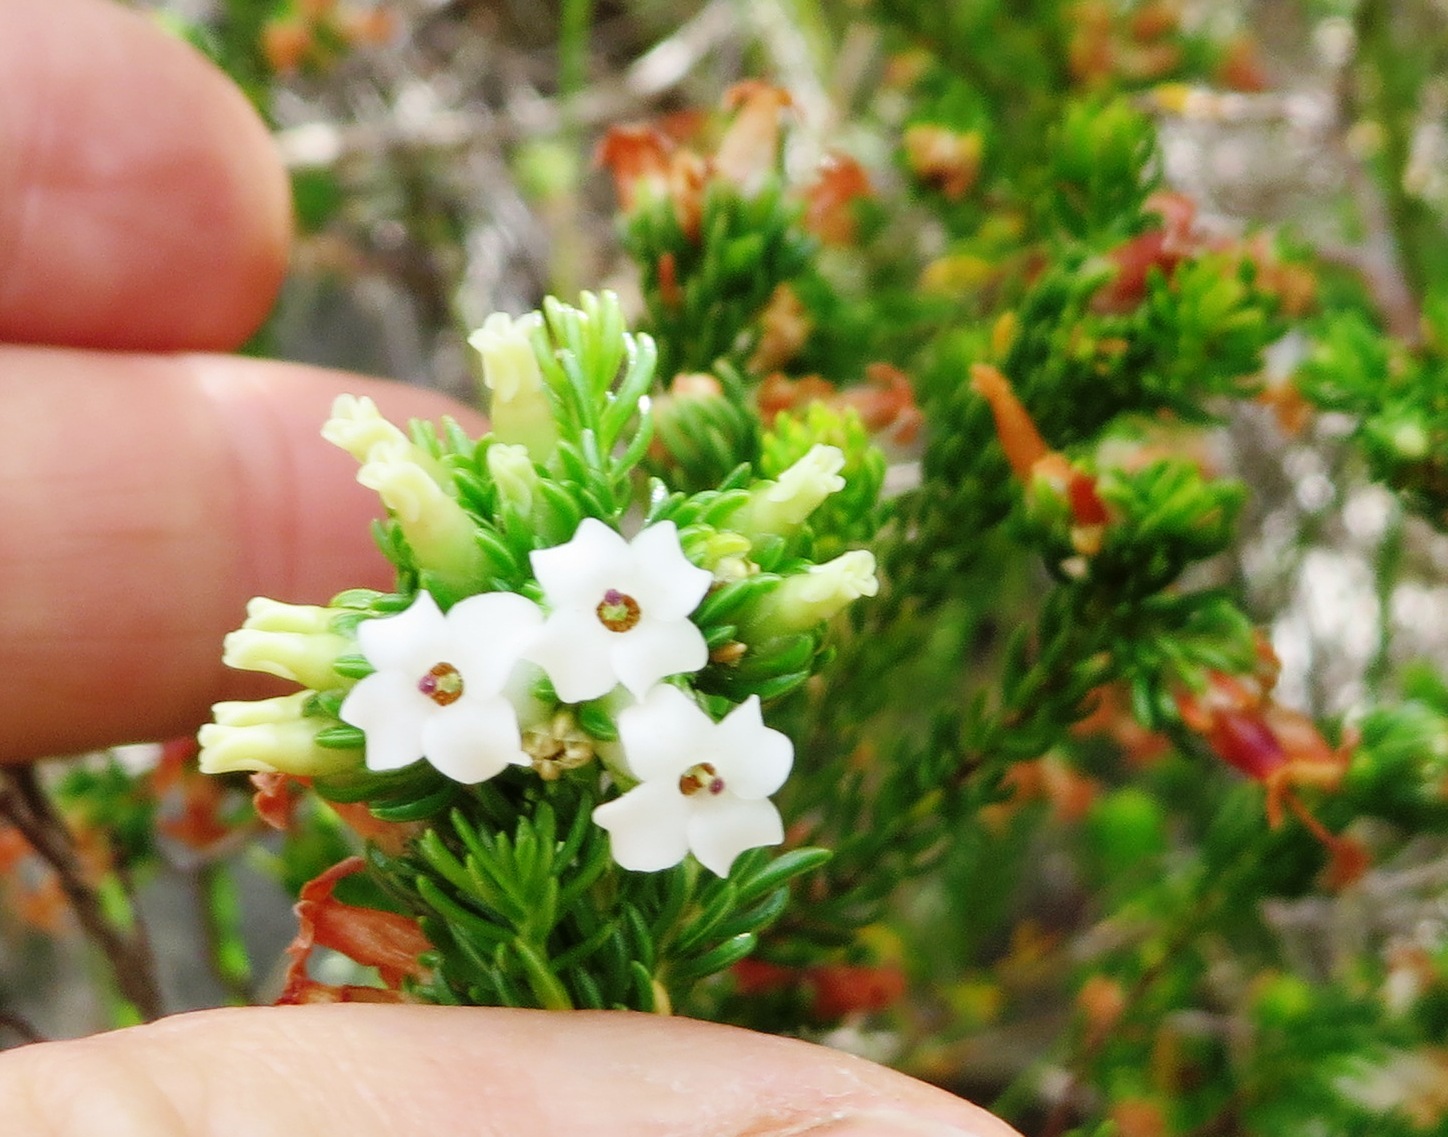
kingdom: Plantae
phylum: Tracheophyta
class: Magnoliopsida
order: Ericales
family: Ericaceae
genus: Erica
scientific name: Erica denticulata
